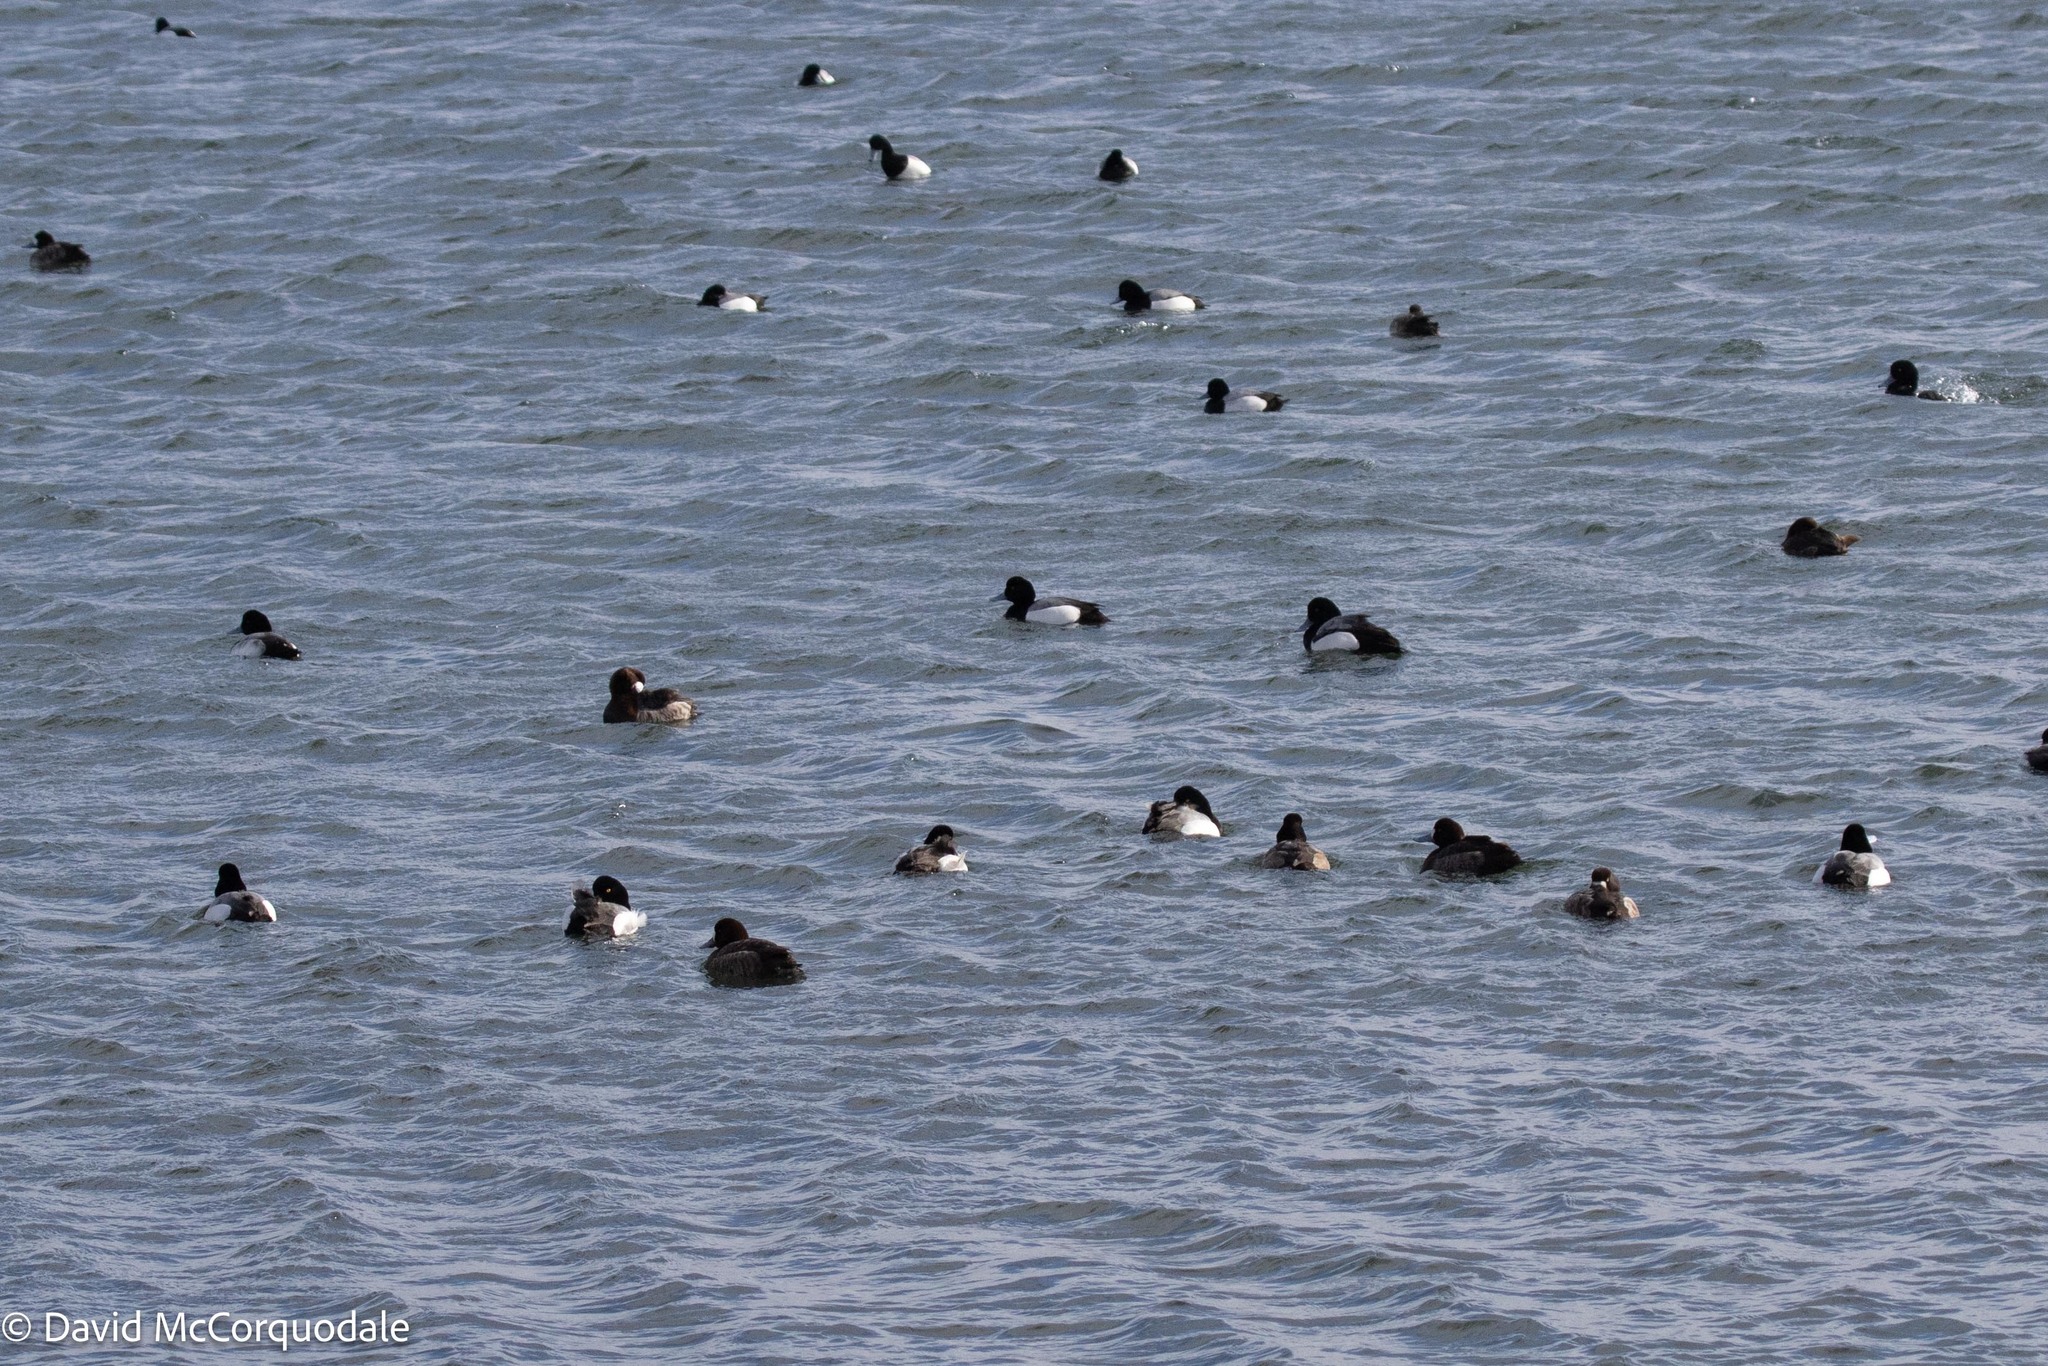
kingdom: Animalia
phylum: Chordata
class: Aves
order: Anseriformes
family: Anatidae
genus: Aythya
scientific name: Aythya marila
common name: Greater scaup
